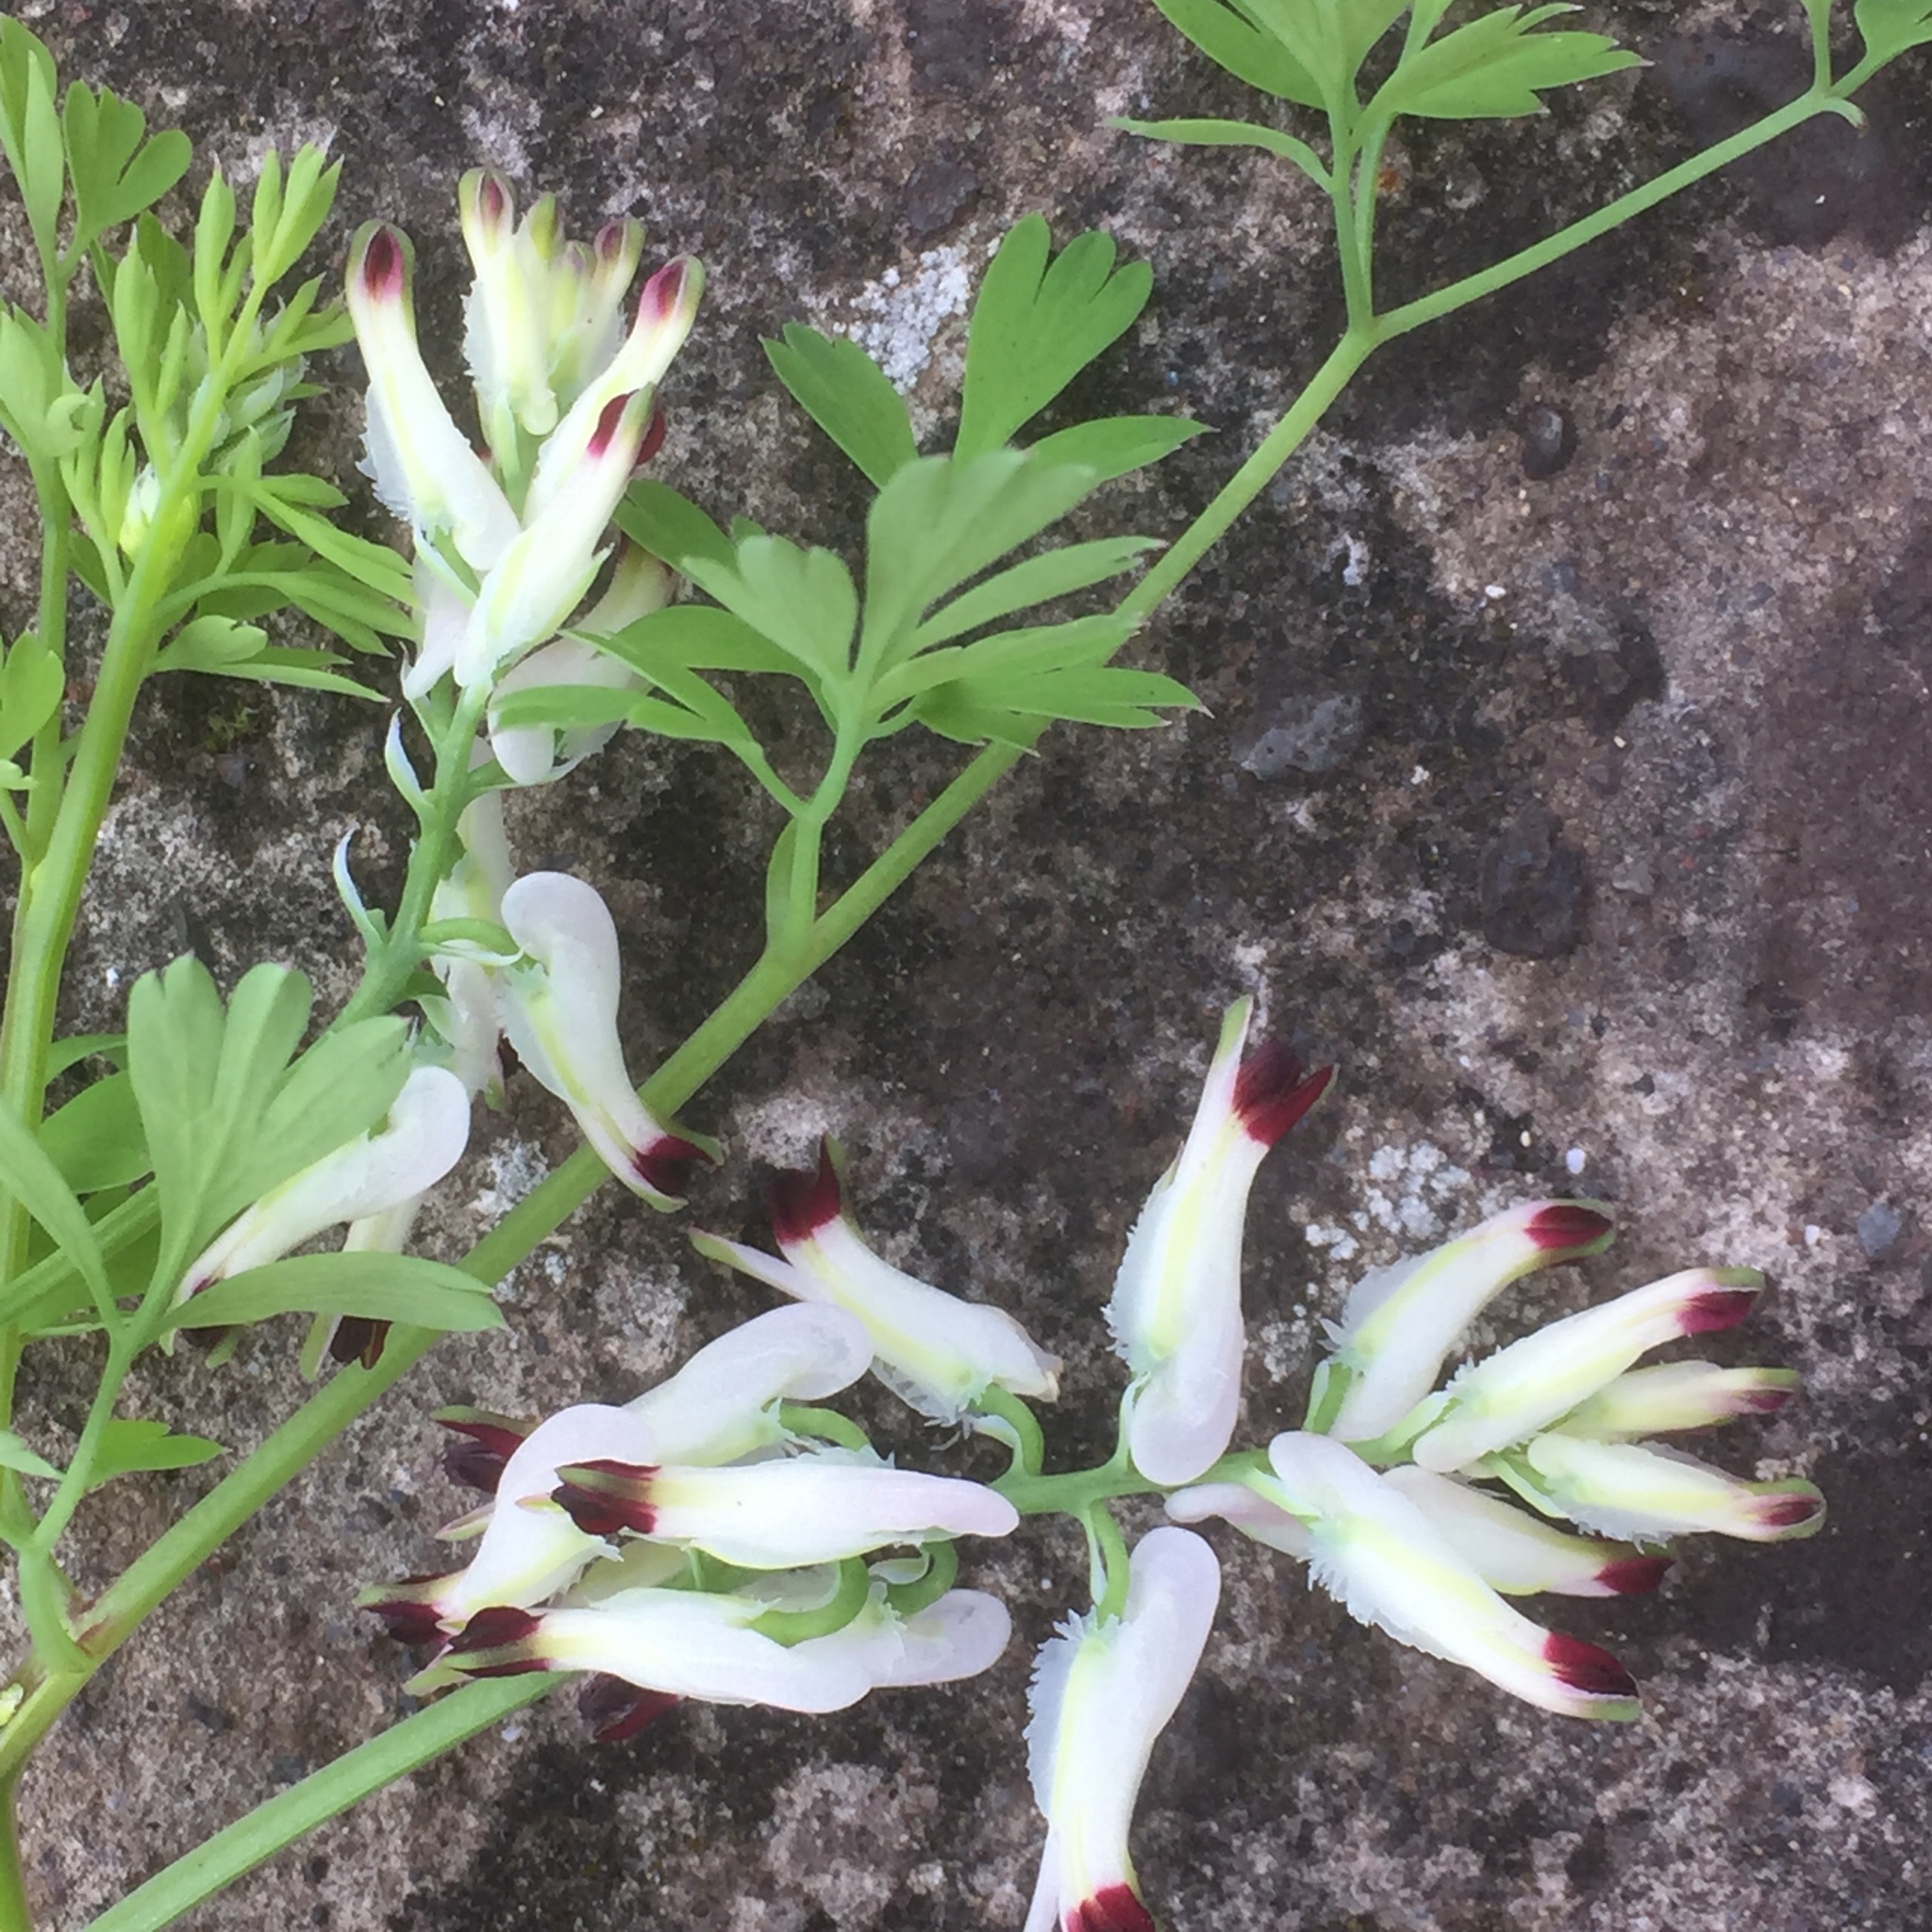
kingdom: Plantae
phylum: Tracheophyta
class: Magnoliopsida
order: Ranunculales
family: Papaveraceae
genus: Fumaria
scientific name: Fumaria capreolata
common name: White ramping-fumitory
